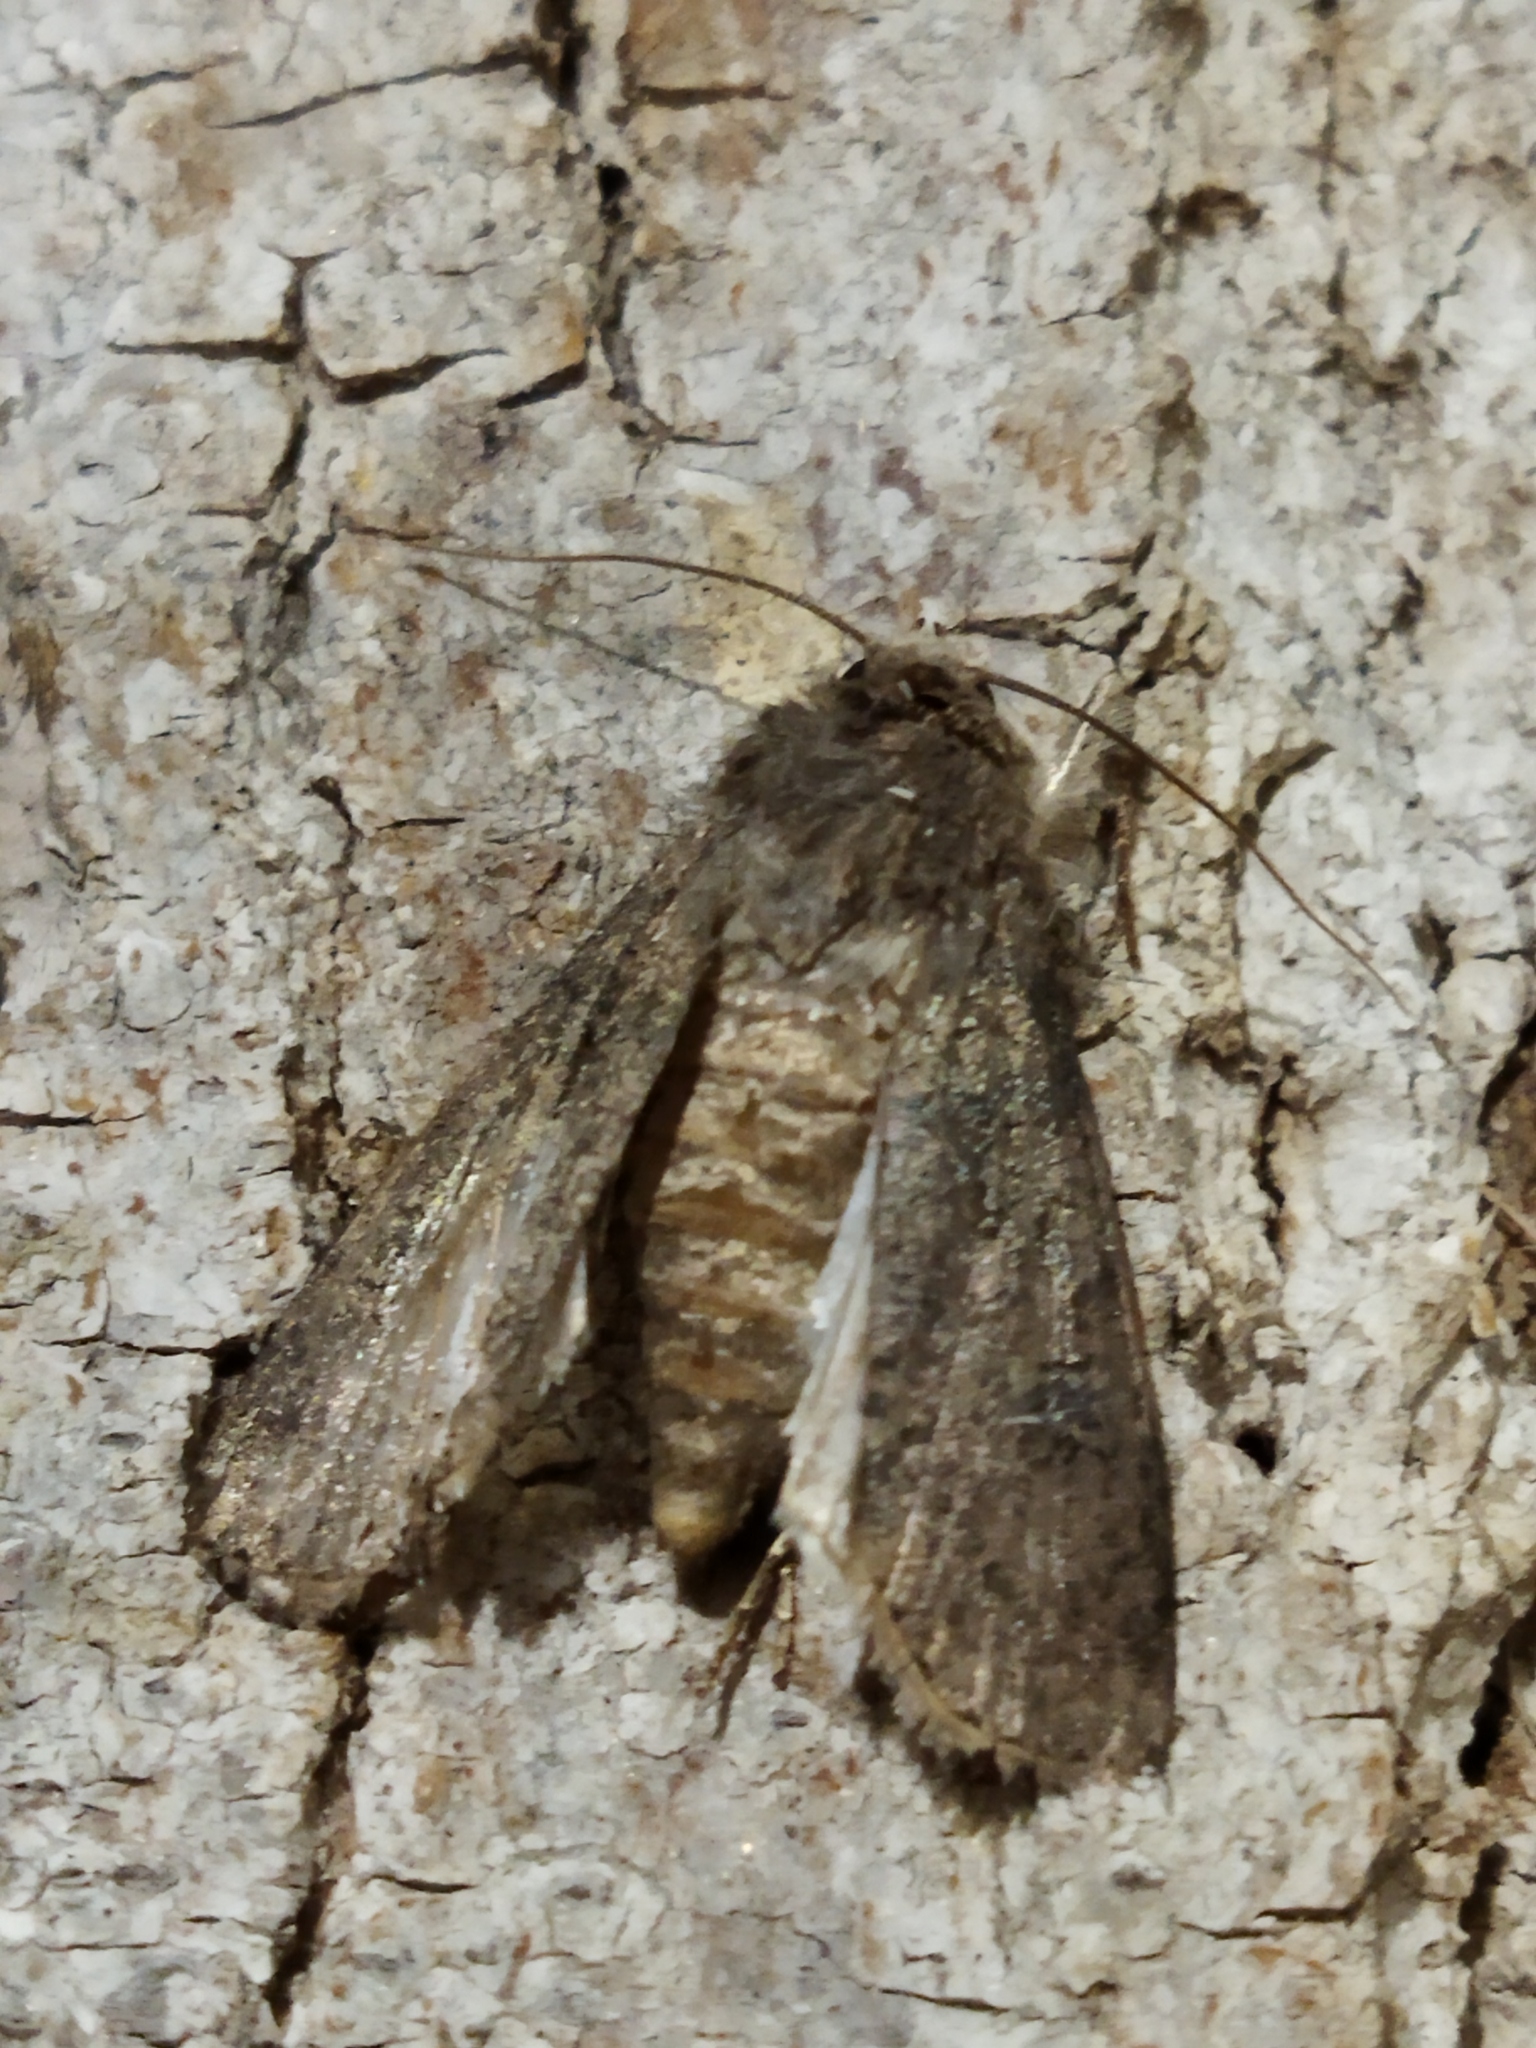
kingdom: Animalia
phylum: Arthropoda
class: Insecta
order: Lepidoptera
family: Noctuidae
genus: Agrotis
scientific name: Agrotis segetum
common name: Turnip moth
